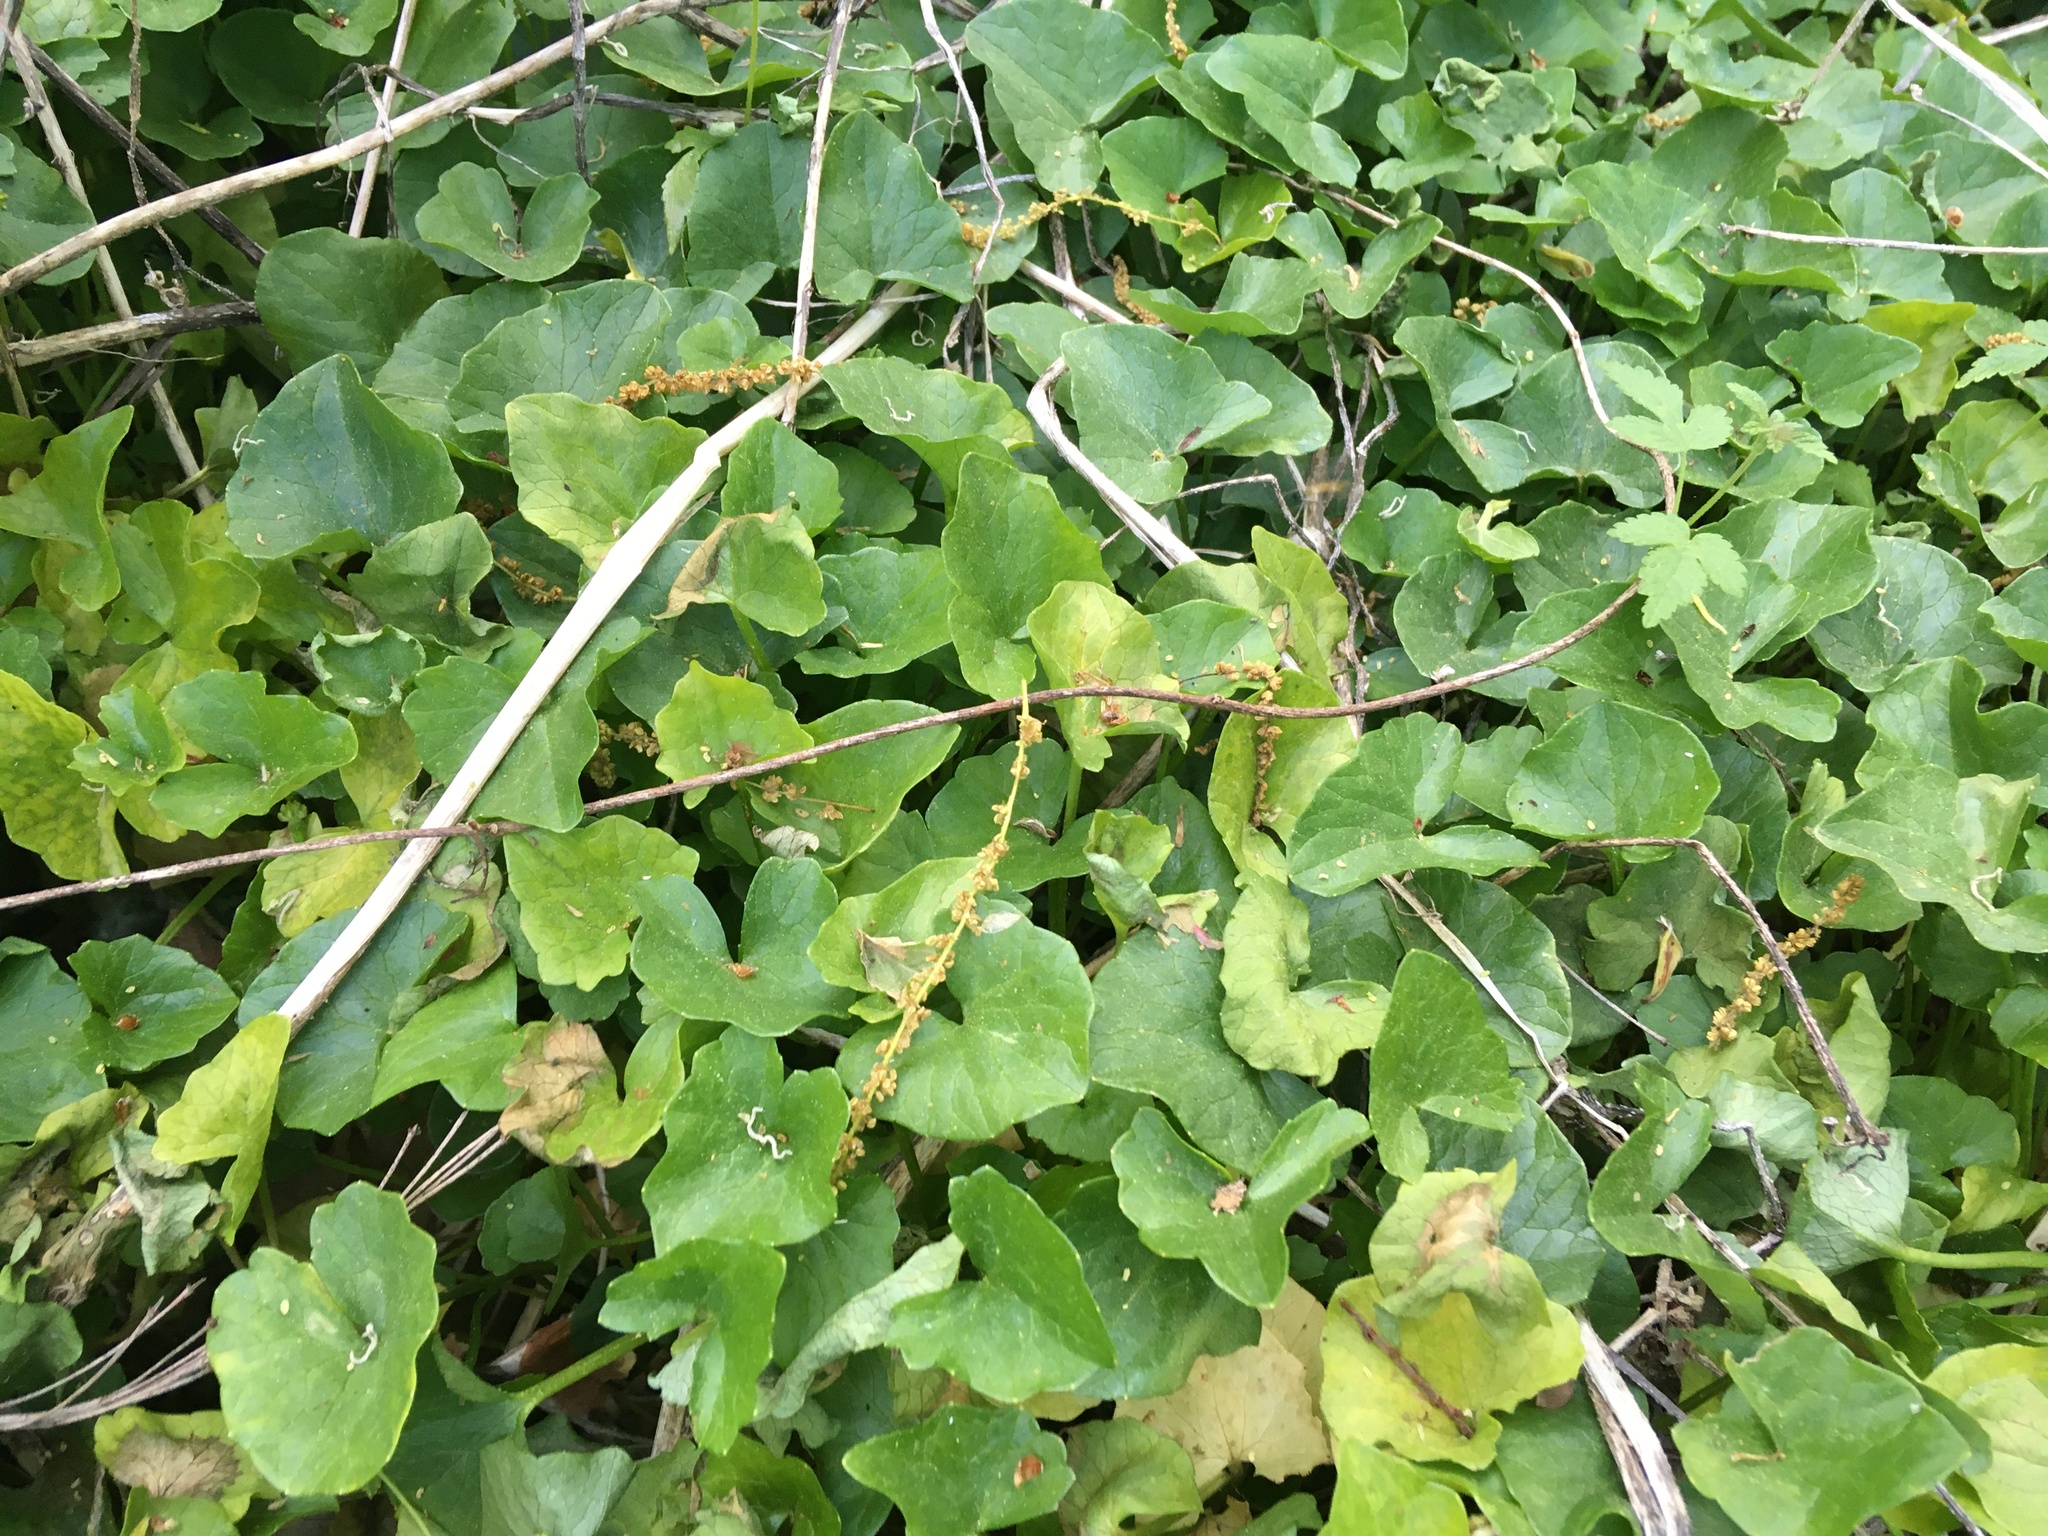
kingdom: Plantae
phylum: Tracheophyta
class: Magnoliopsida
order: Ranunculales
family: Ranunculaceae
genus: Ficaria
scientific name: Ficaria verna
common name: Lesser celandine
